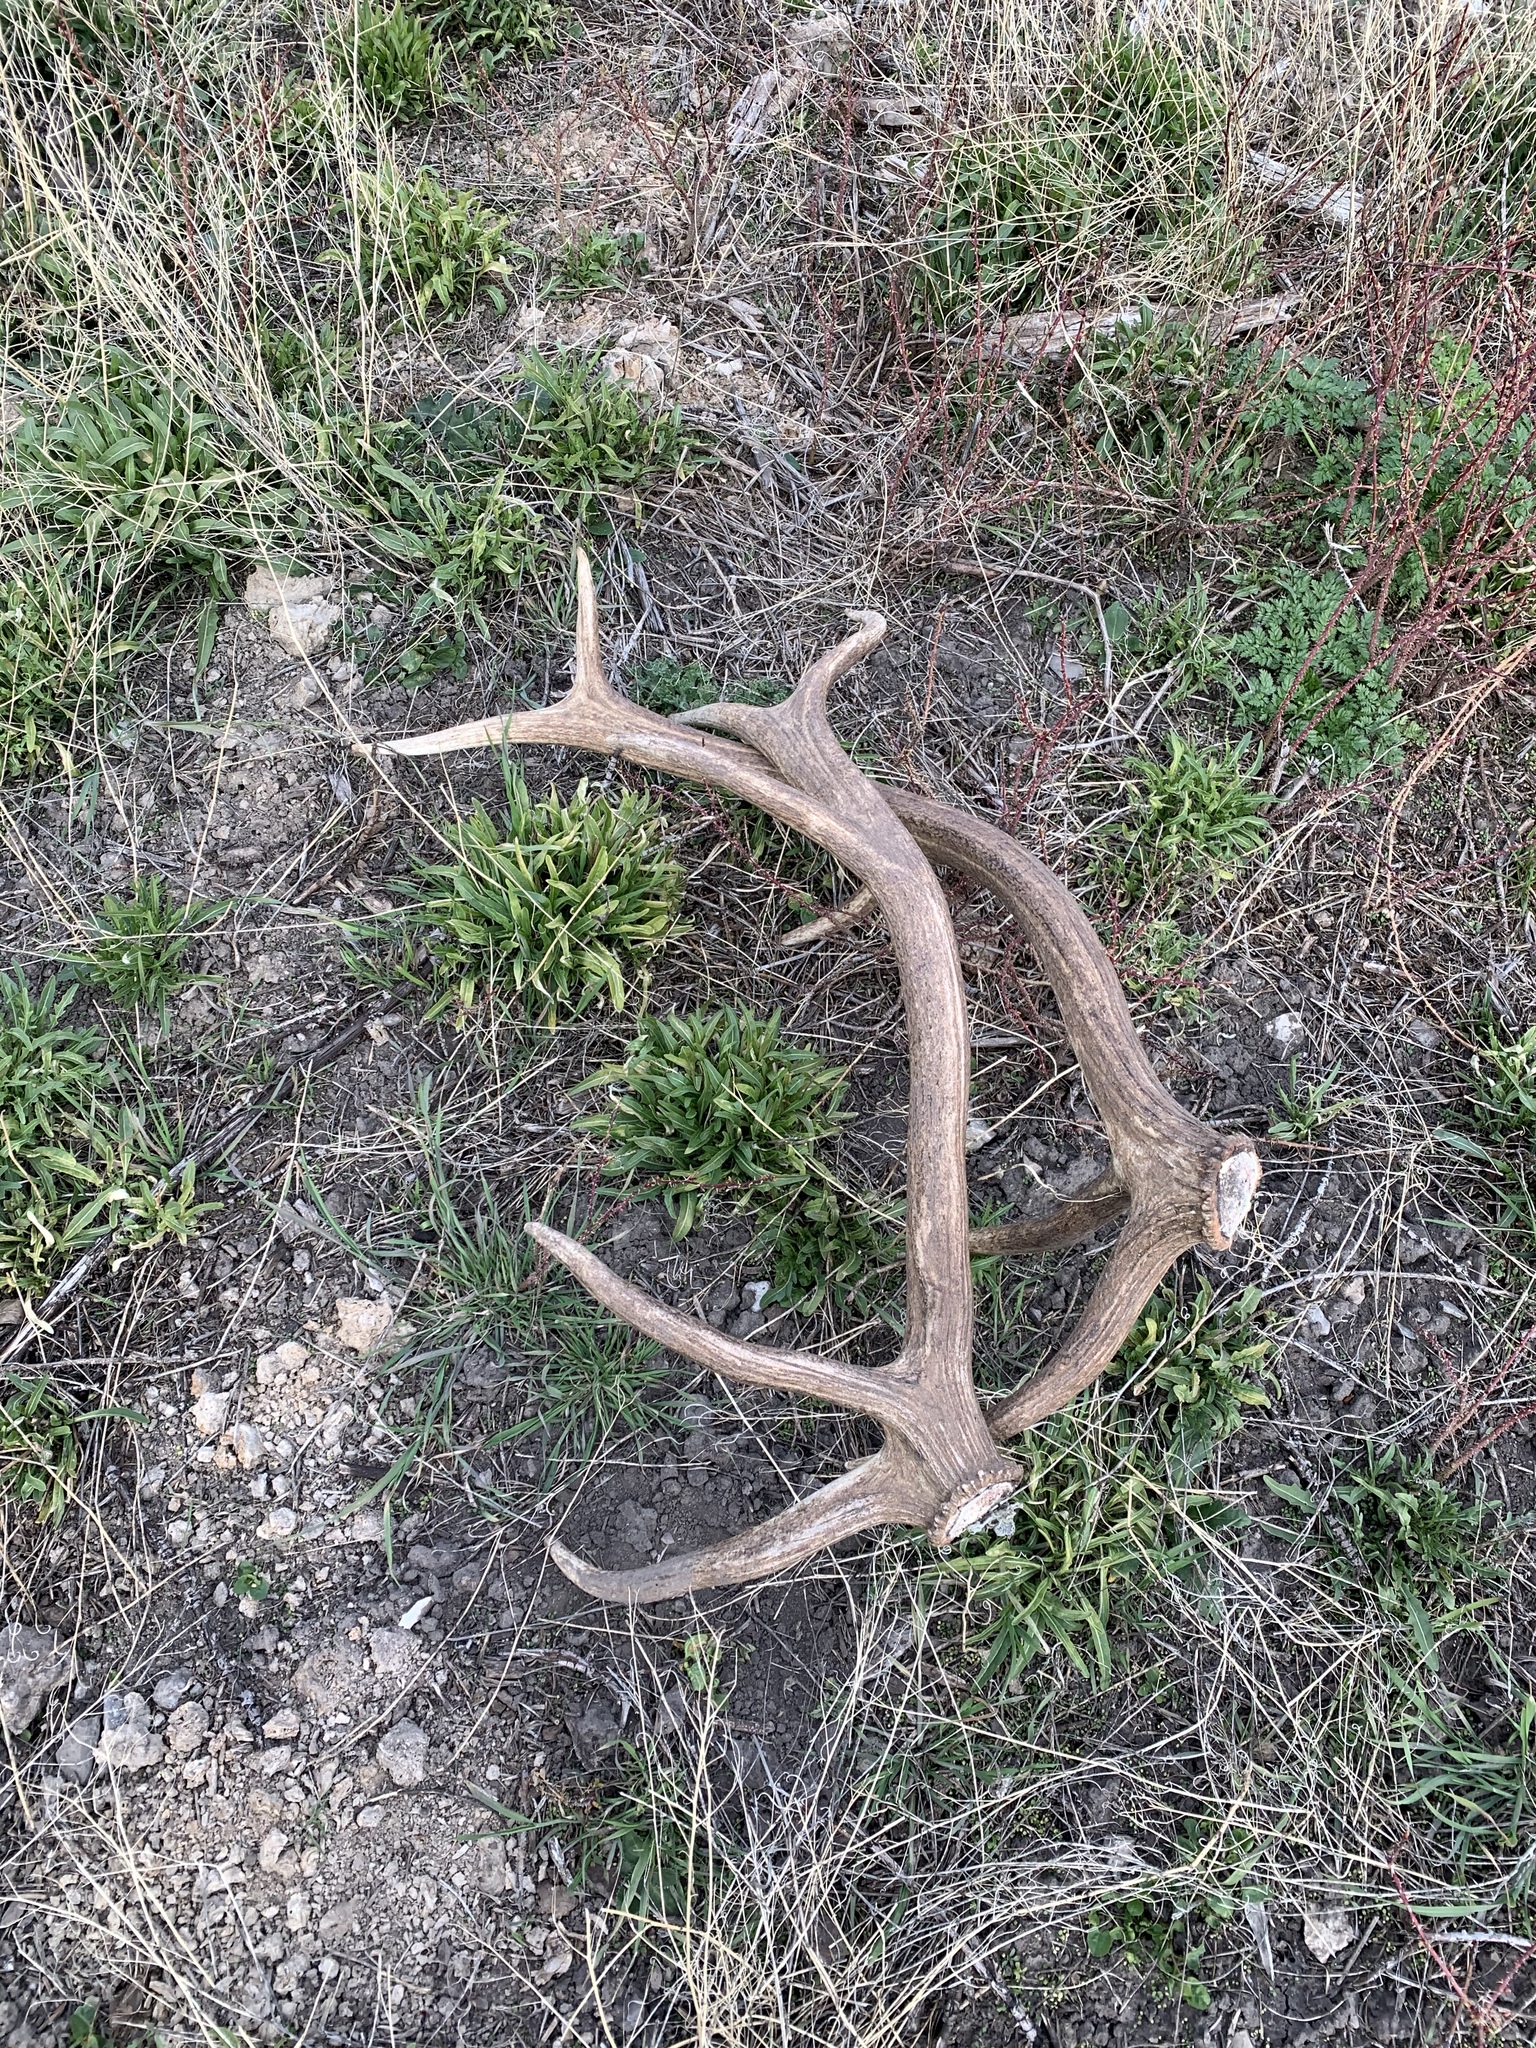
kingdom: Animalia
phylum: Chordata
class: Mammalia
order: Artiodactyla
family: Cervidae
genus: Cervus
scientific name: Cervus elaphus
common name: Red deer
